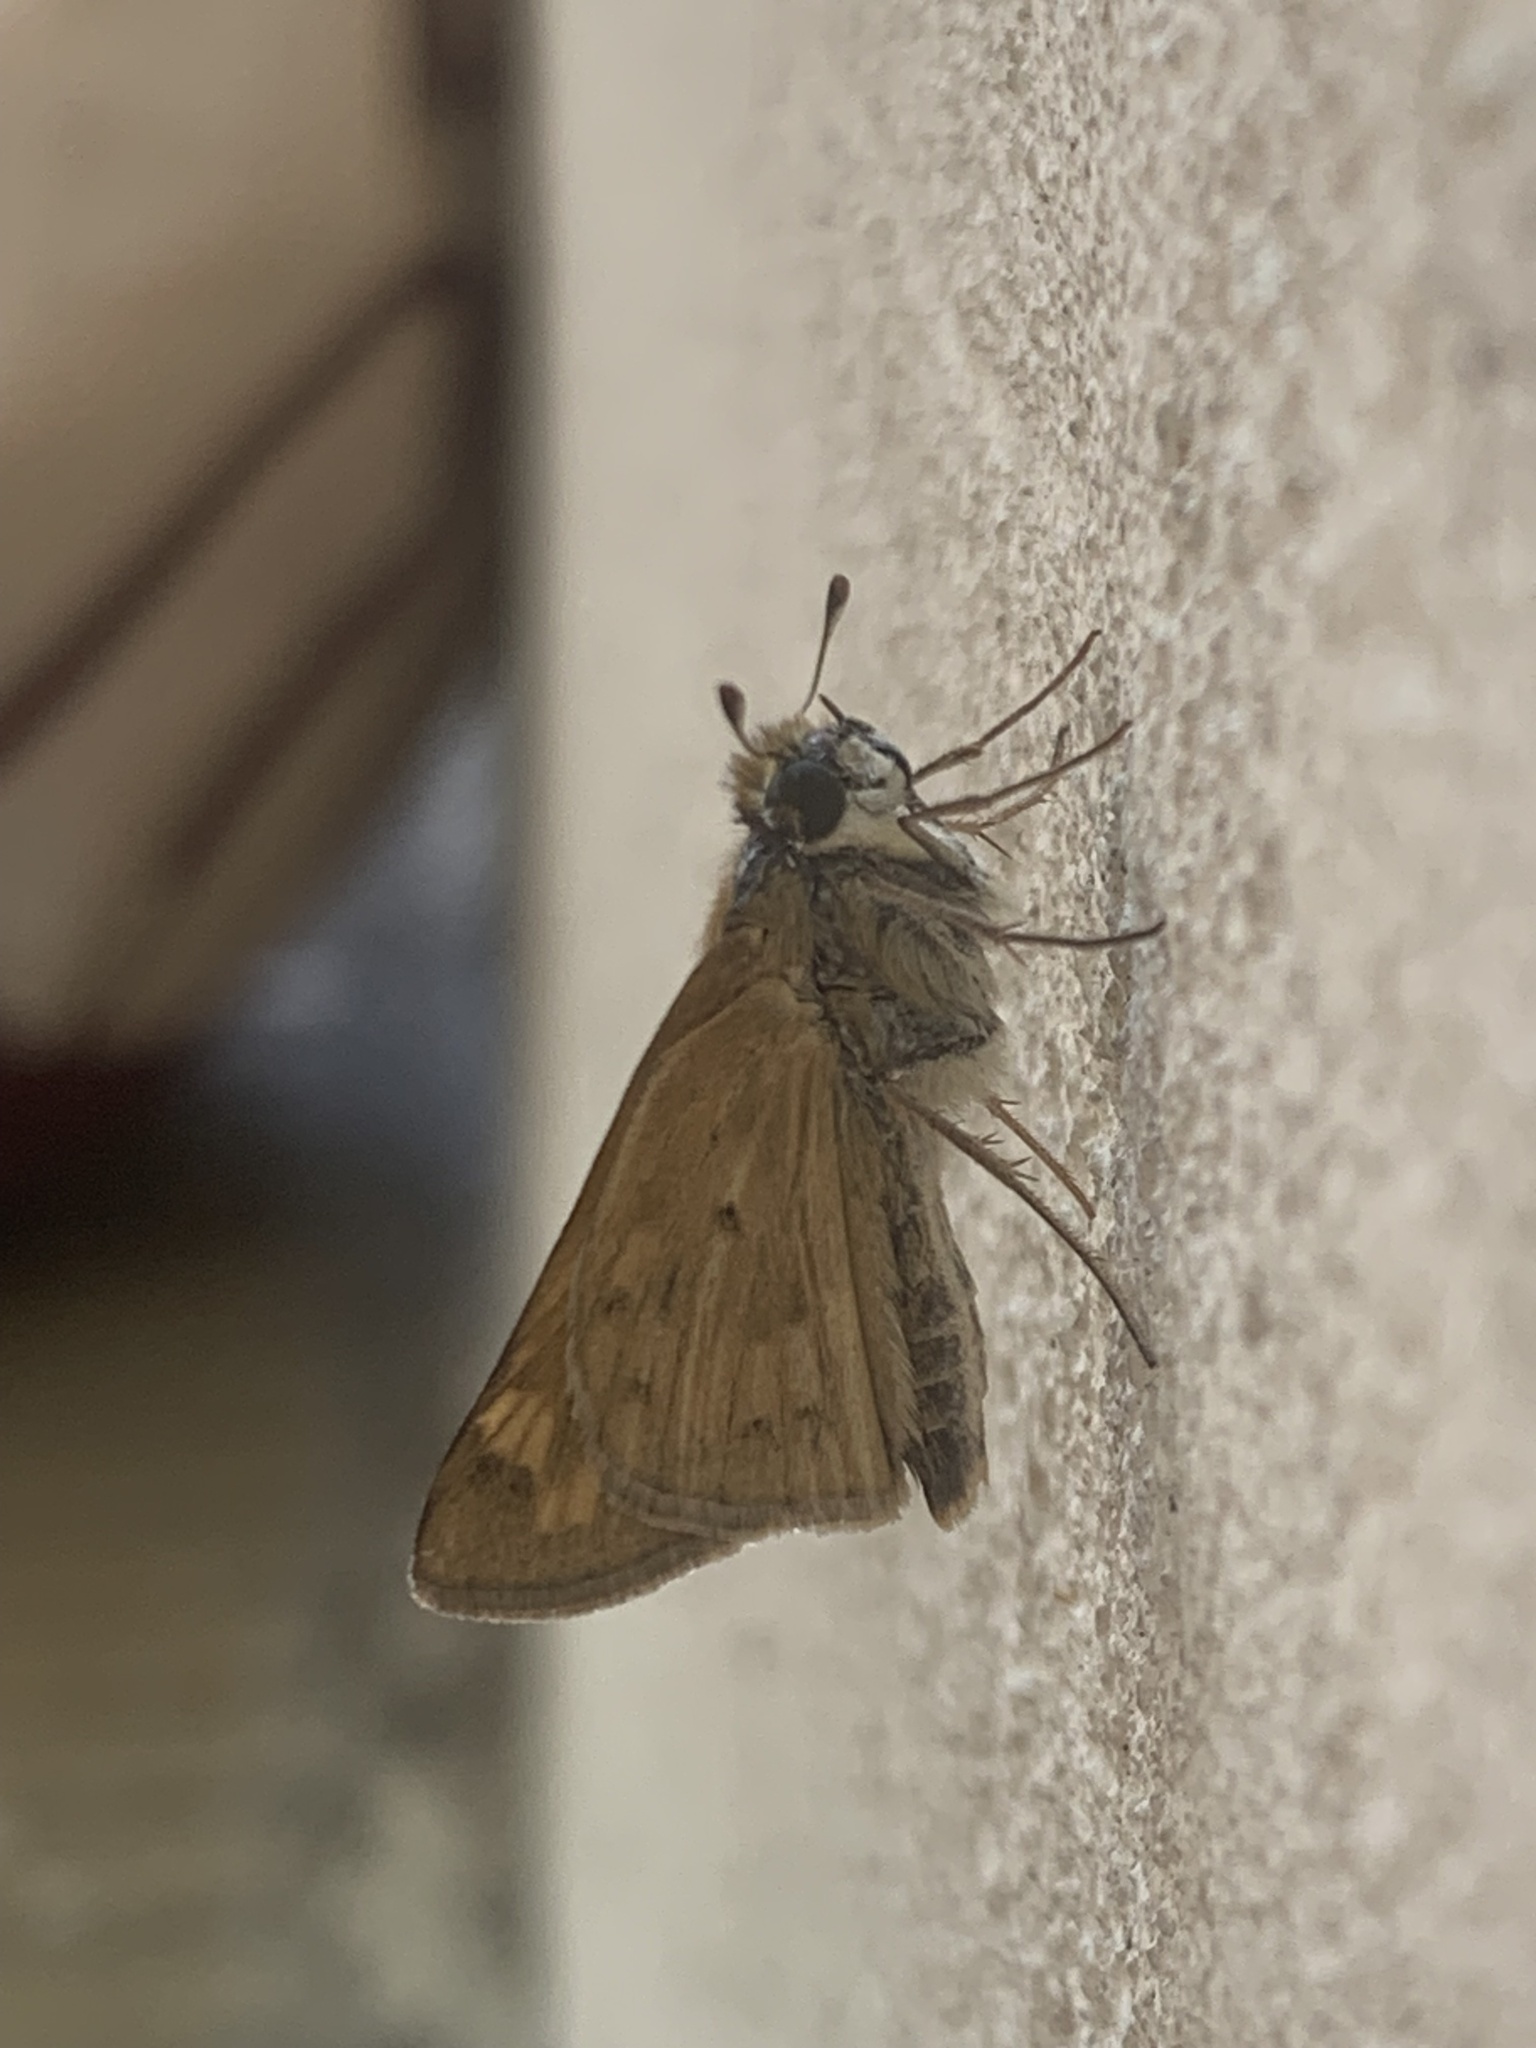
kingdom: Animalia
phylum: Arthropoda
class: Insecta
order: Lepidoptera
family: Hesperiidae
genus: Hylephila
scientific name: Hylephila phyleus
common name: Fiery skipper
